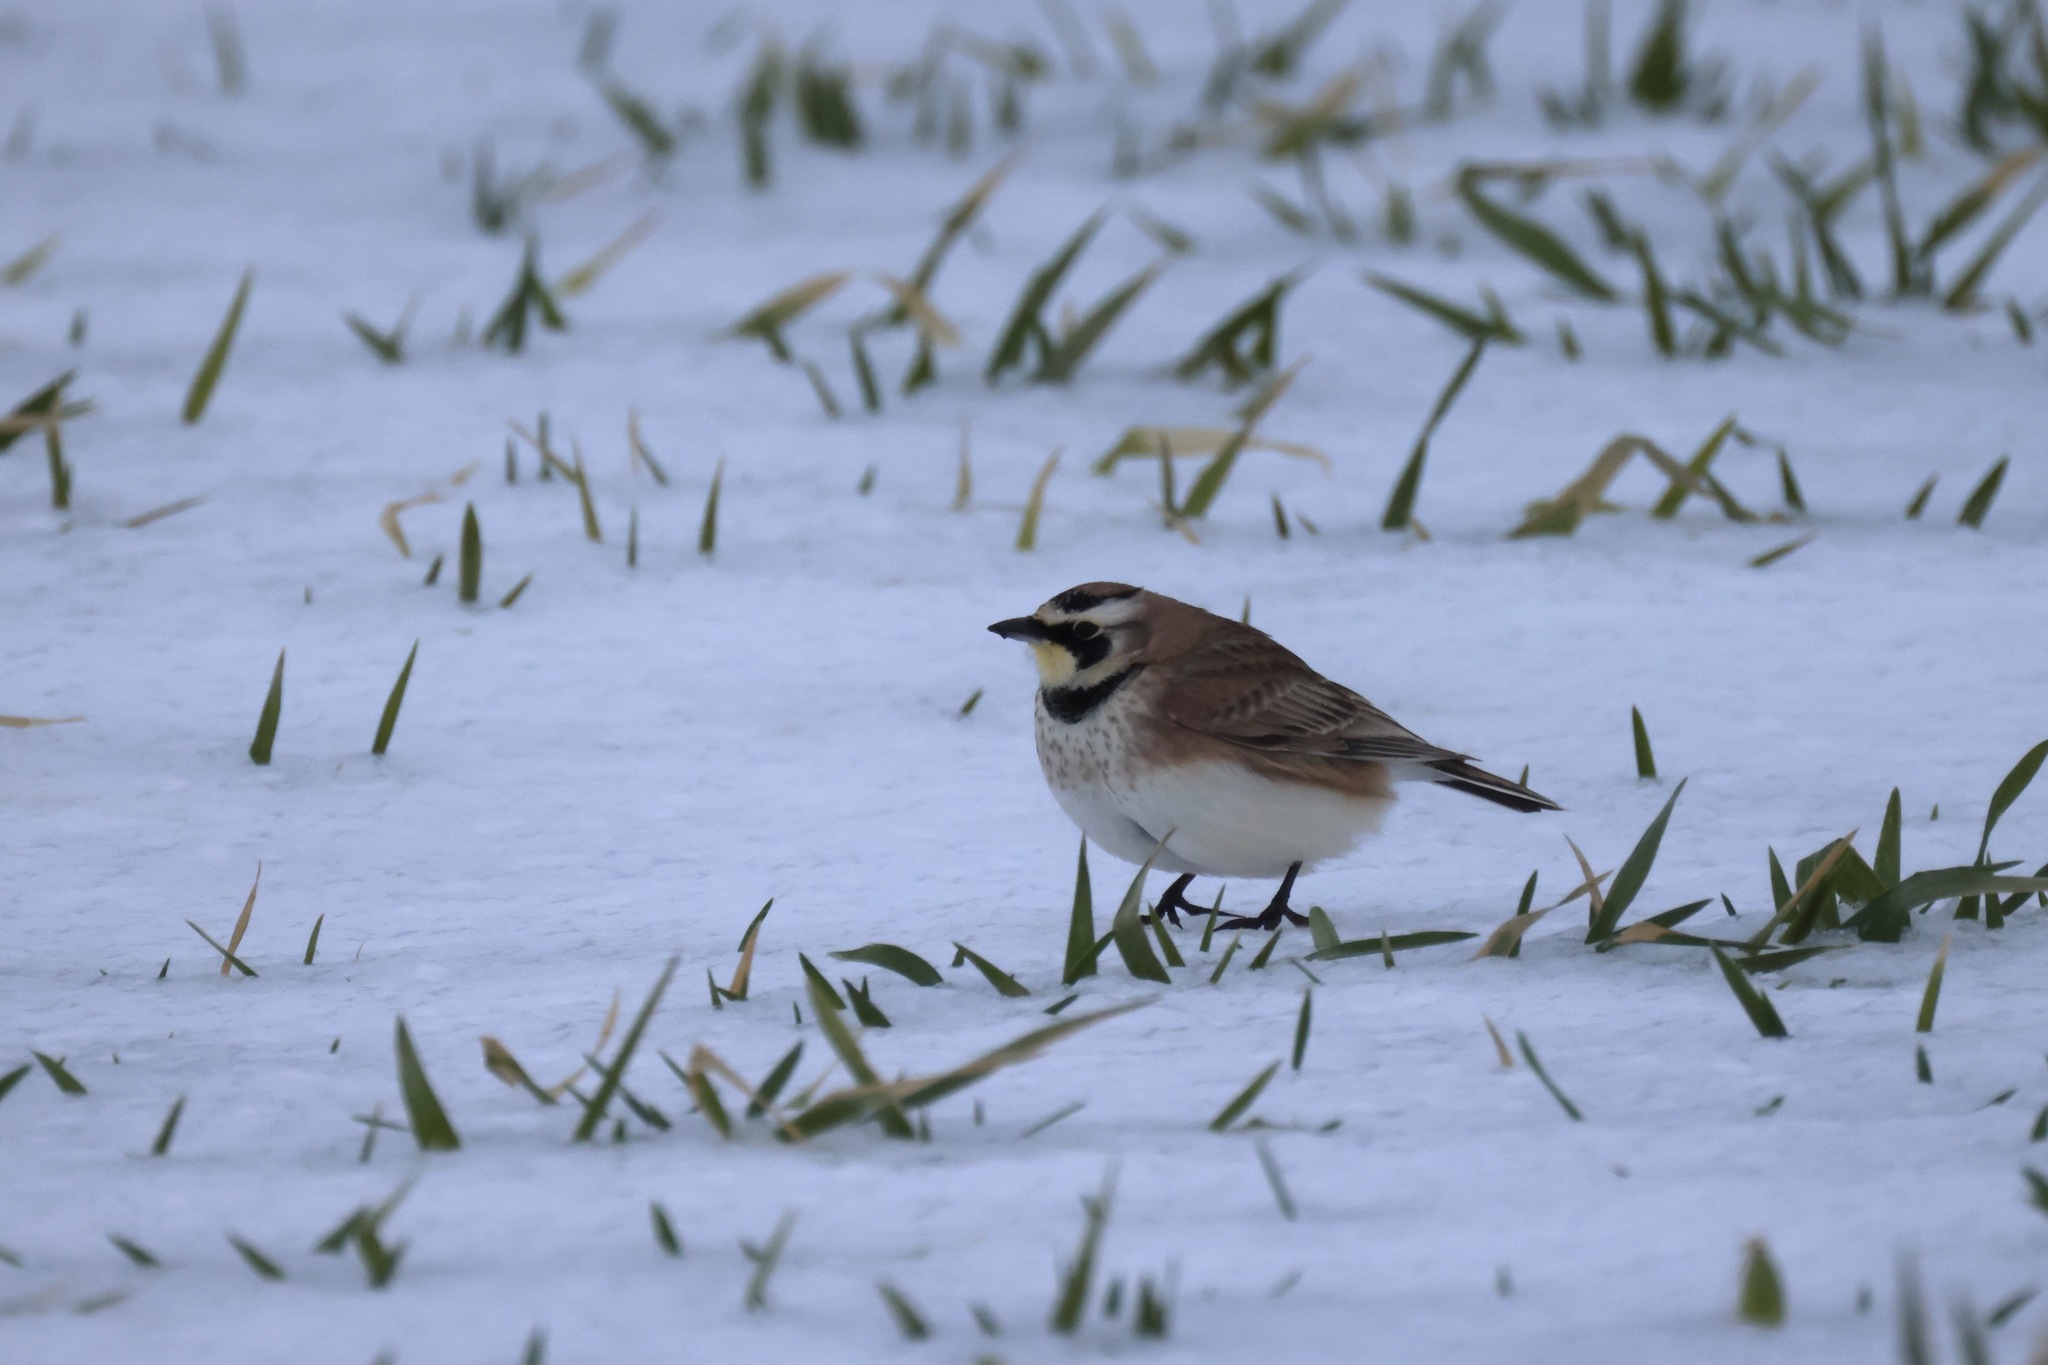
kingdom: Animalia
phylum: Chordata
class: Aves
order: Passeriformes
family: Alaudidae
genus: Eremophila
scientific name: Eremophila alpestris
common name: Horned lark
